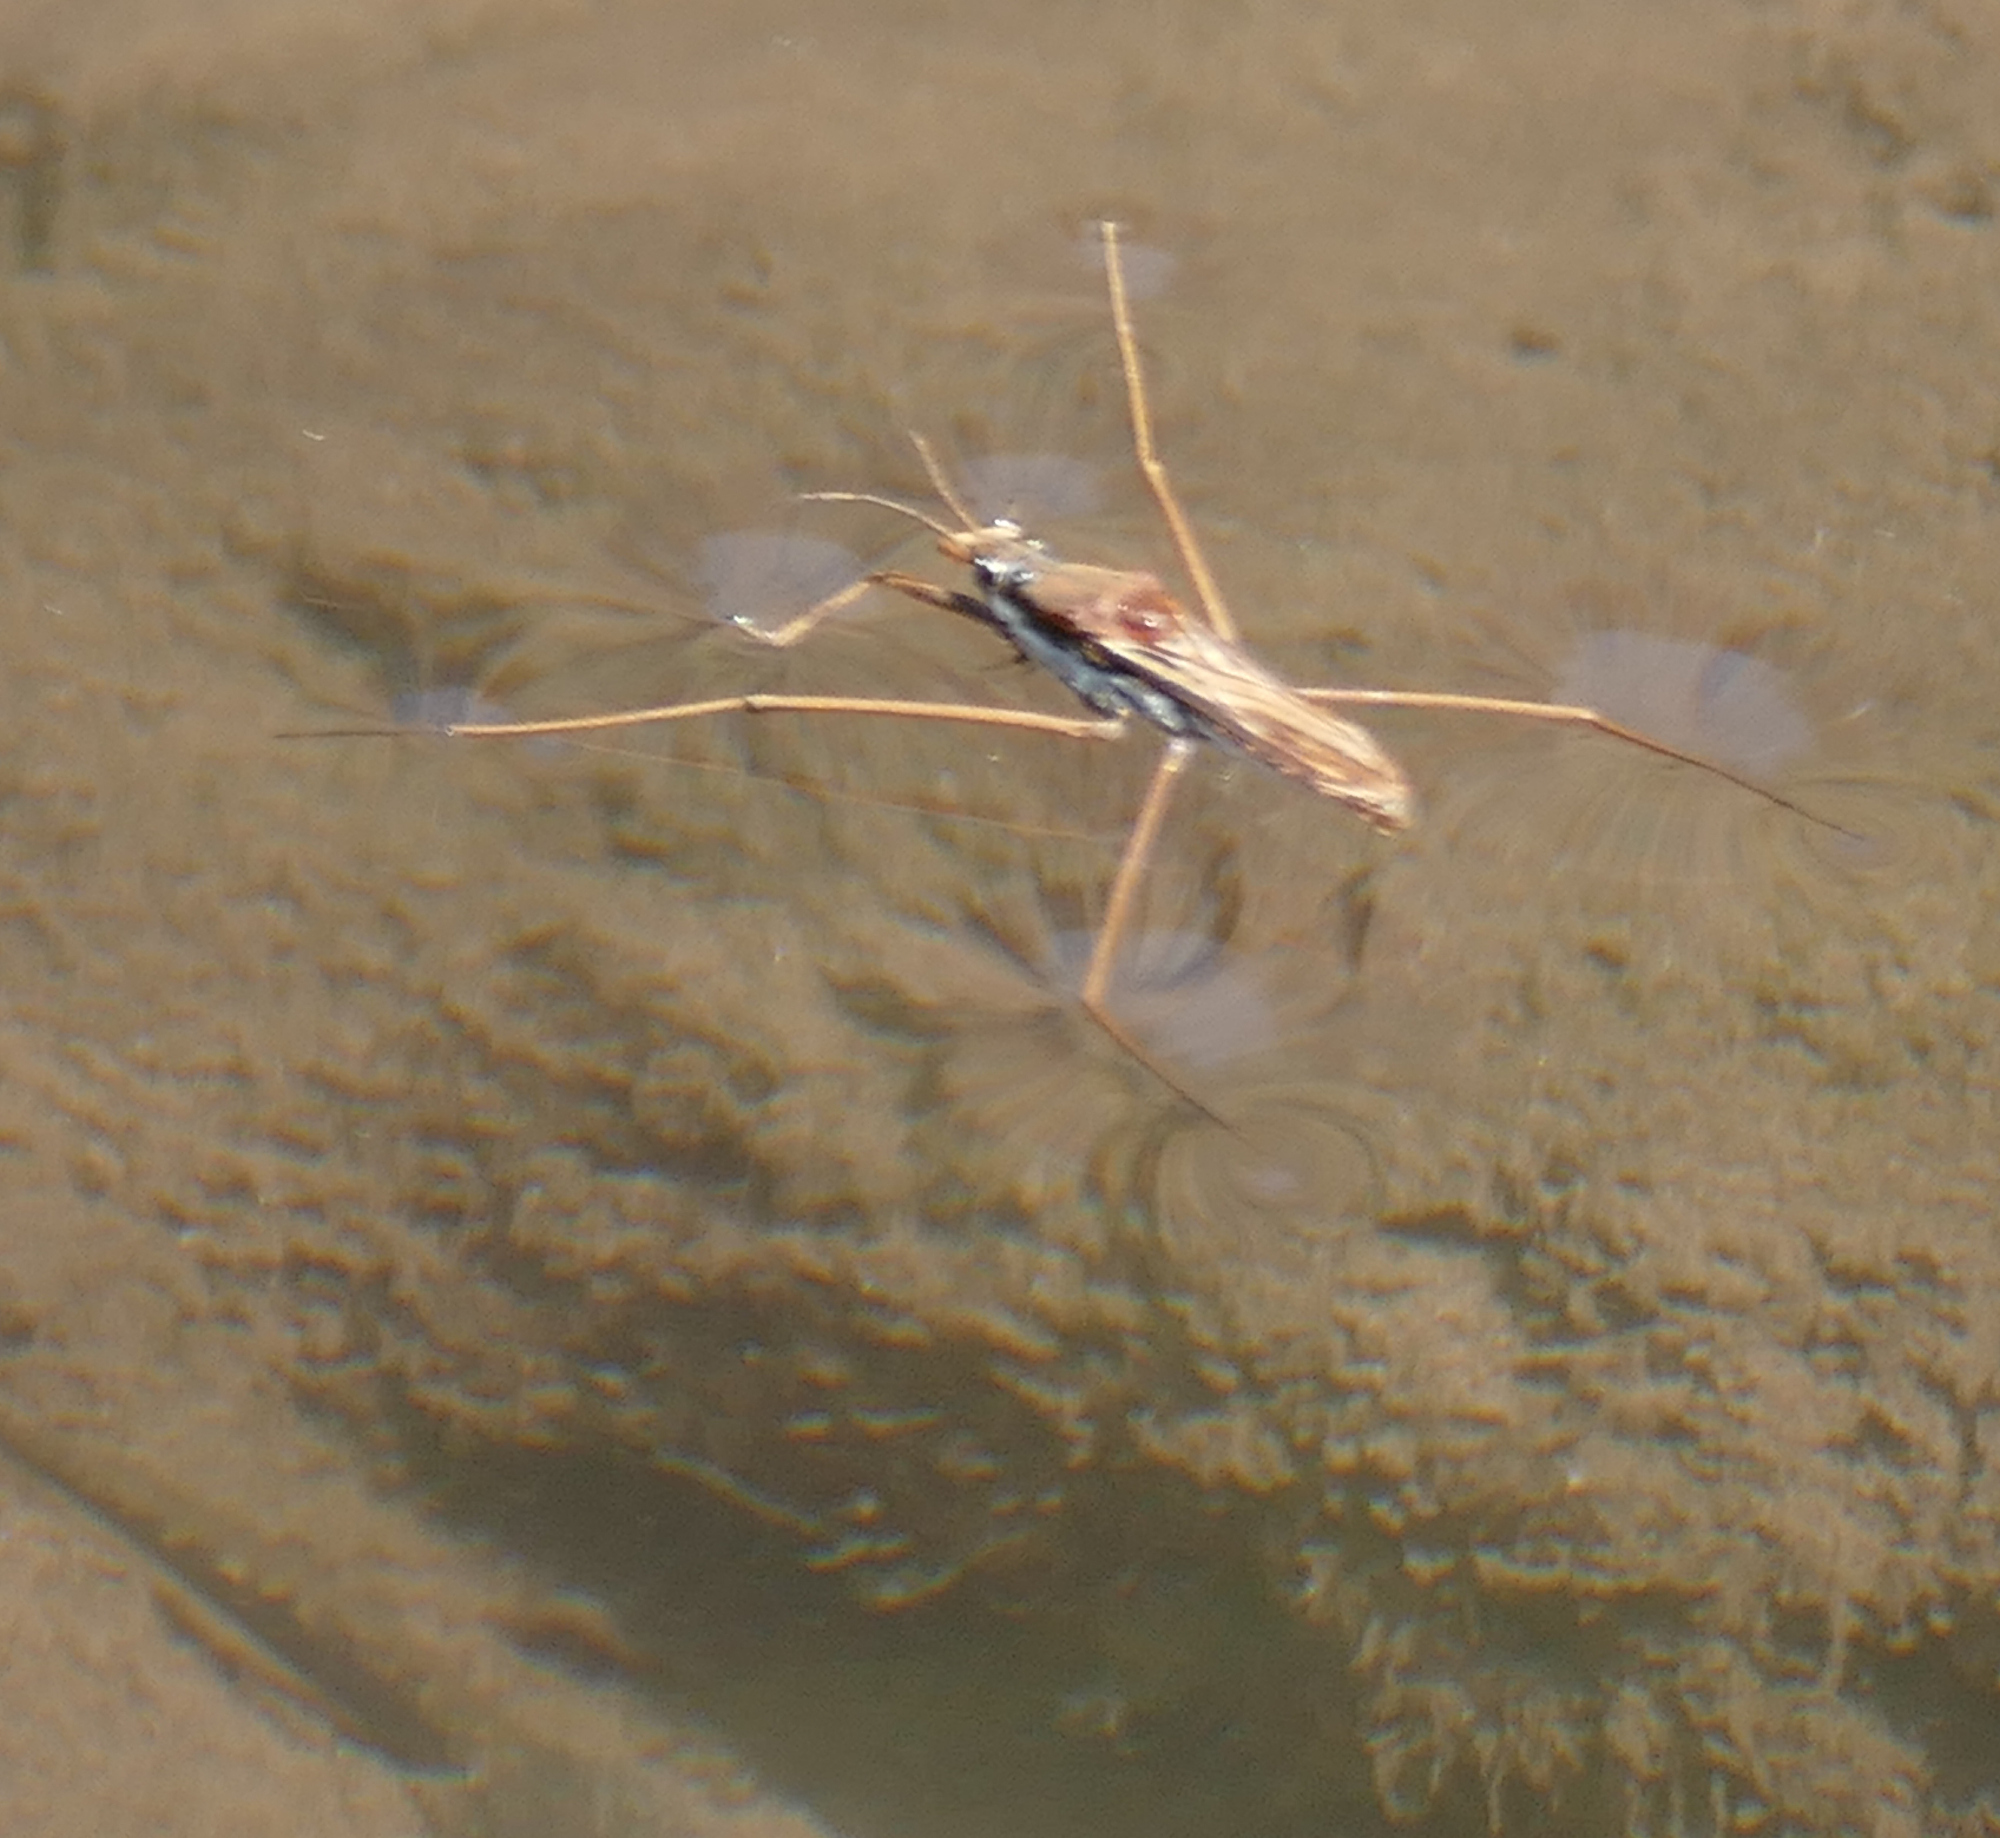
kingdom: Animalia
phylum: Arthropoda
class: Insecta
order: Hemiptera
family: Gerridae
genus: Aquarius
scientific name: Aquarius remigis
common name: Common water strider
